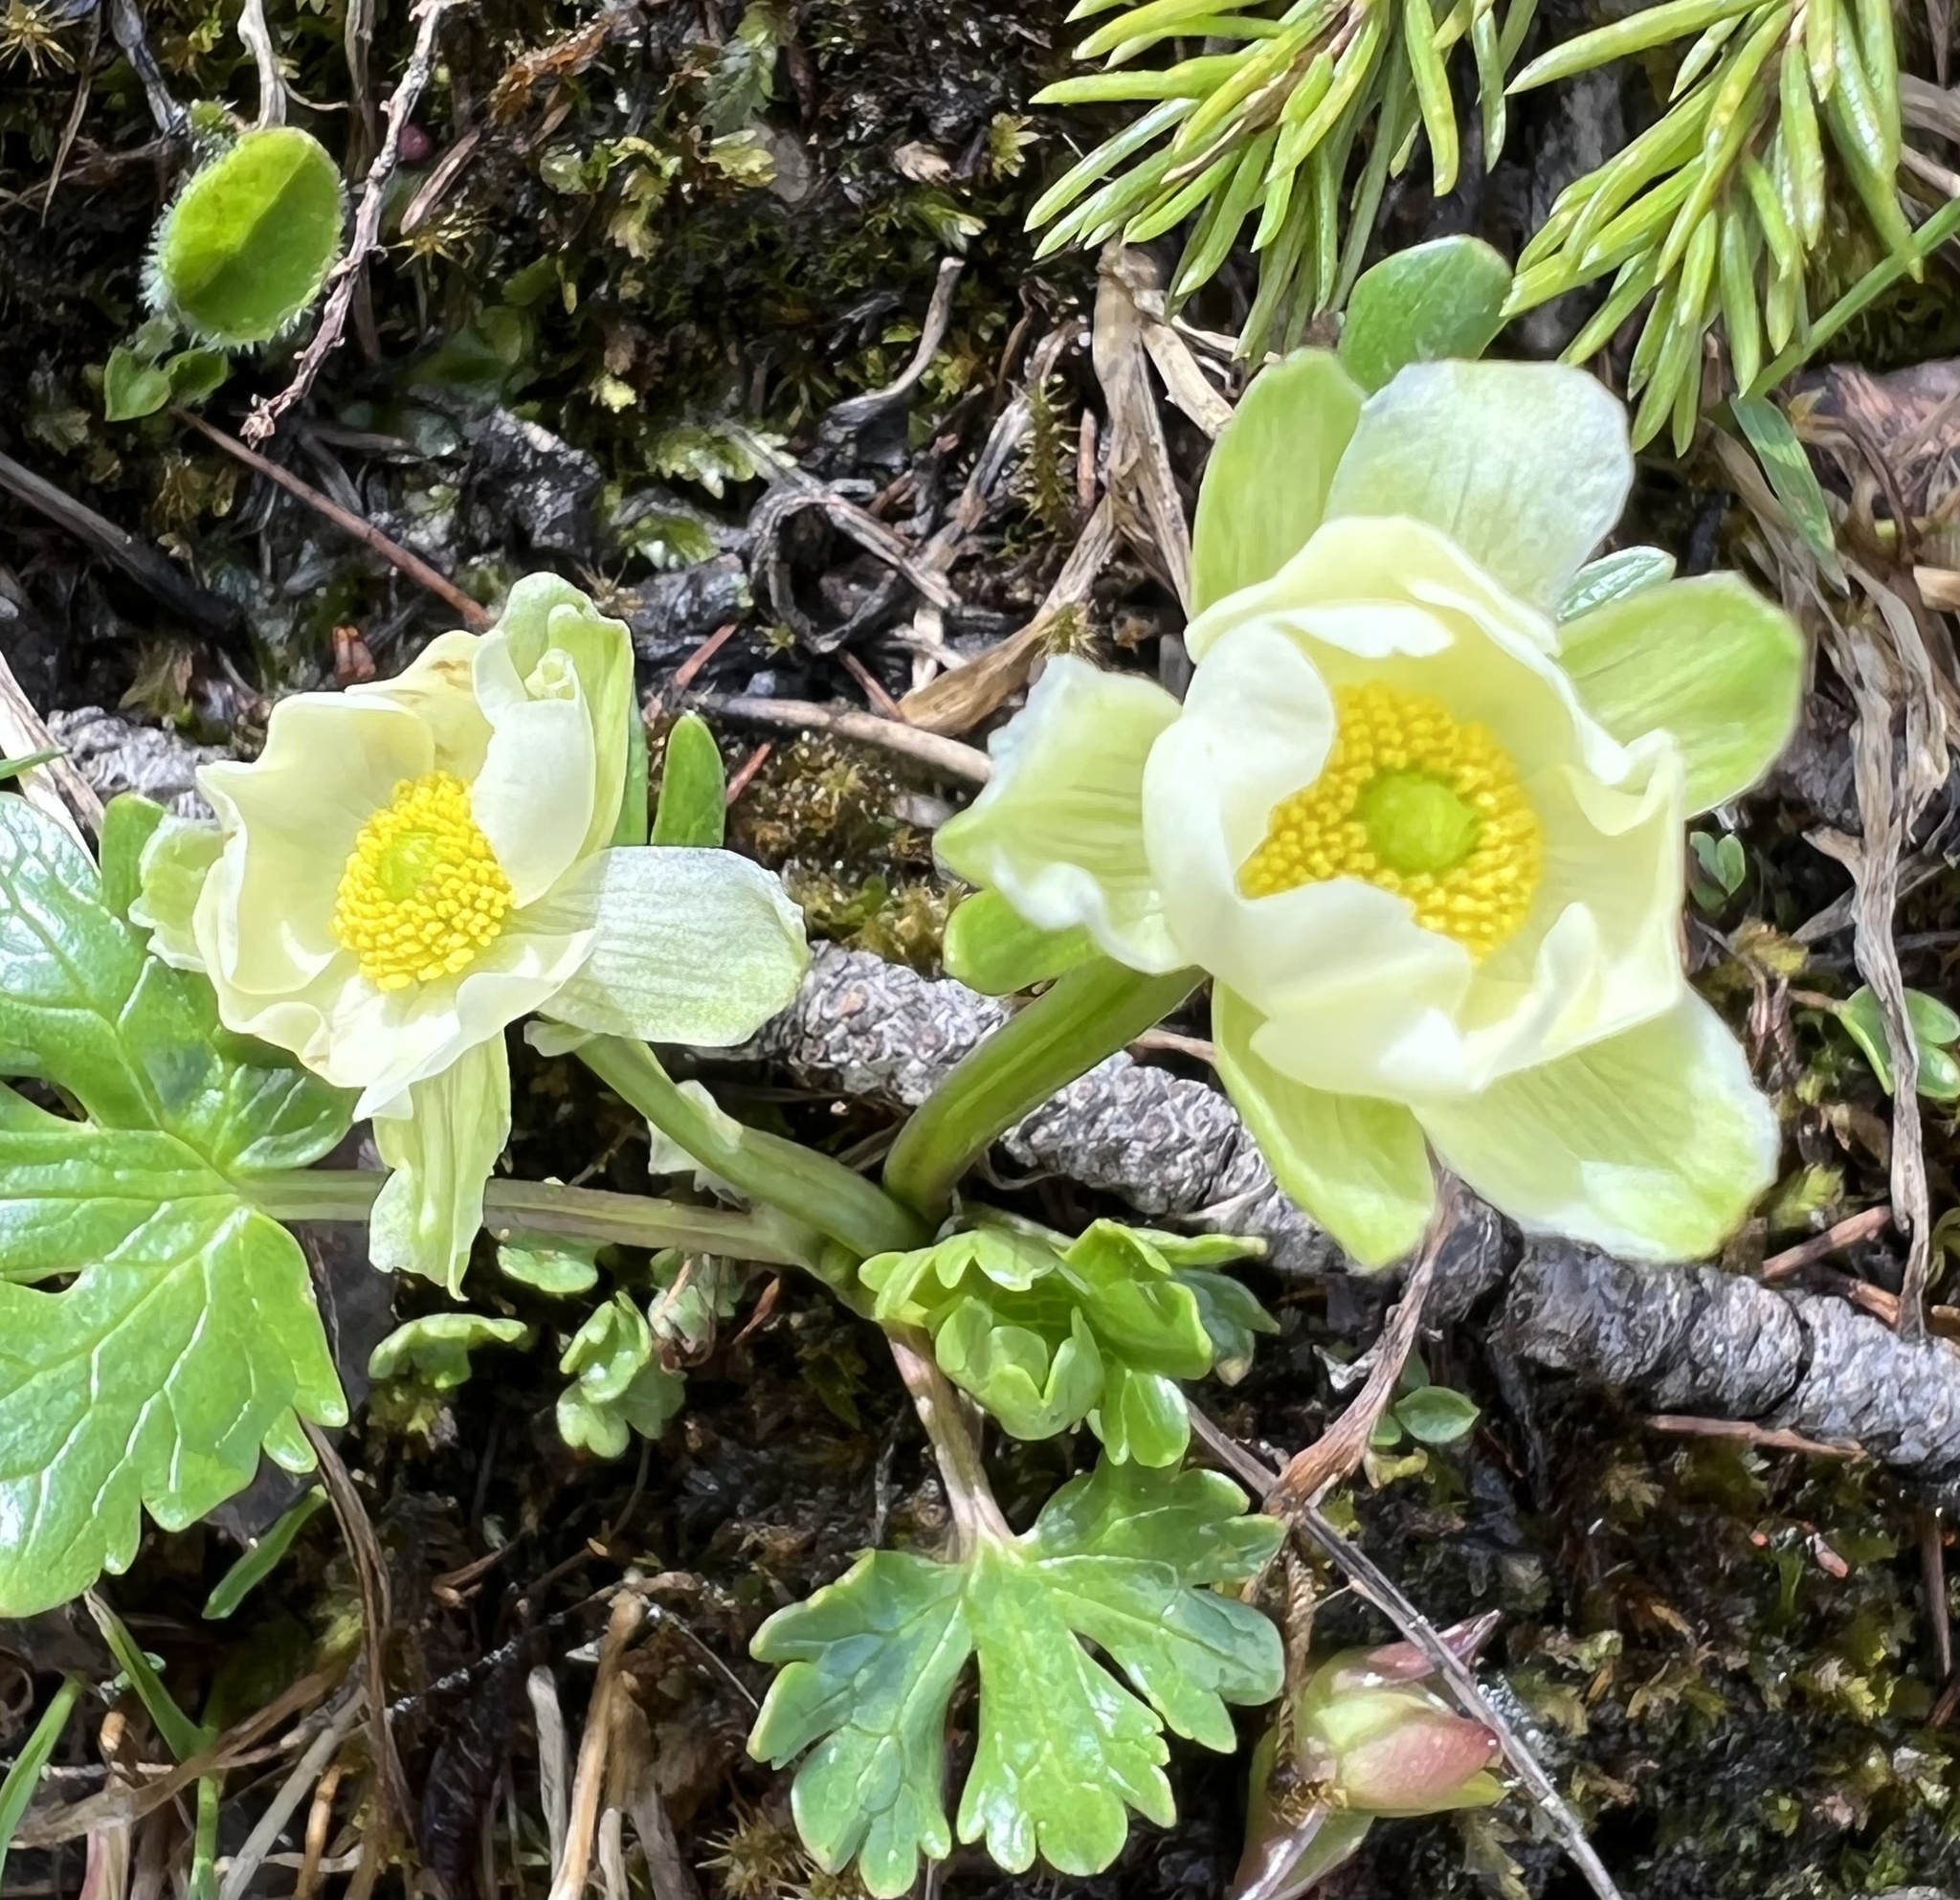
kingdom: Plantae
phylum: Tracheophyta
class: Magnoliopsida
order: Ranunculales
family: Ranunculaceae
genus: Ranunculus
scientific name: Ranunculus alpestris
